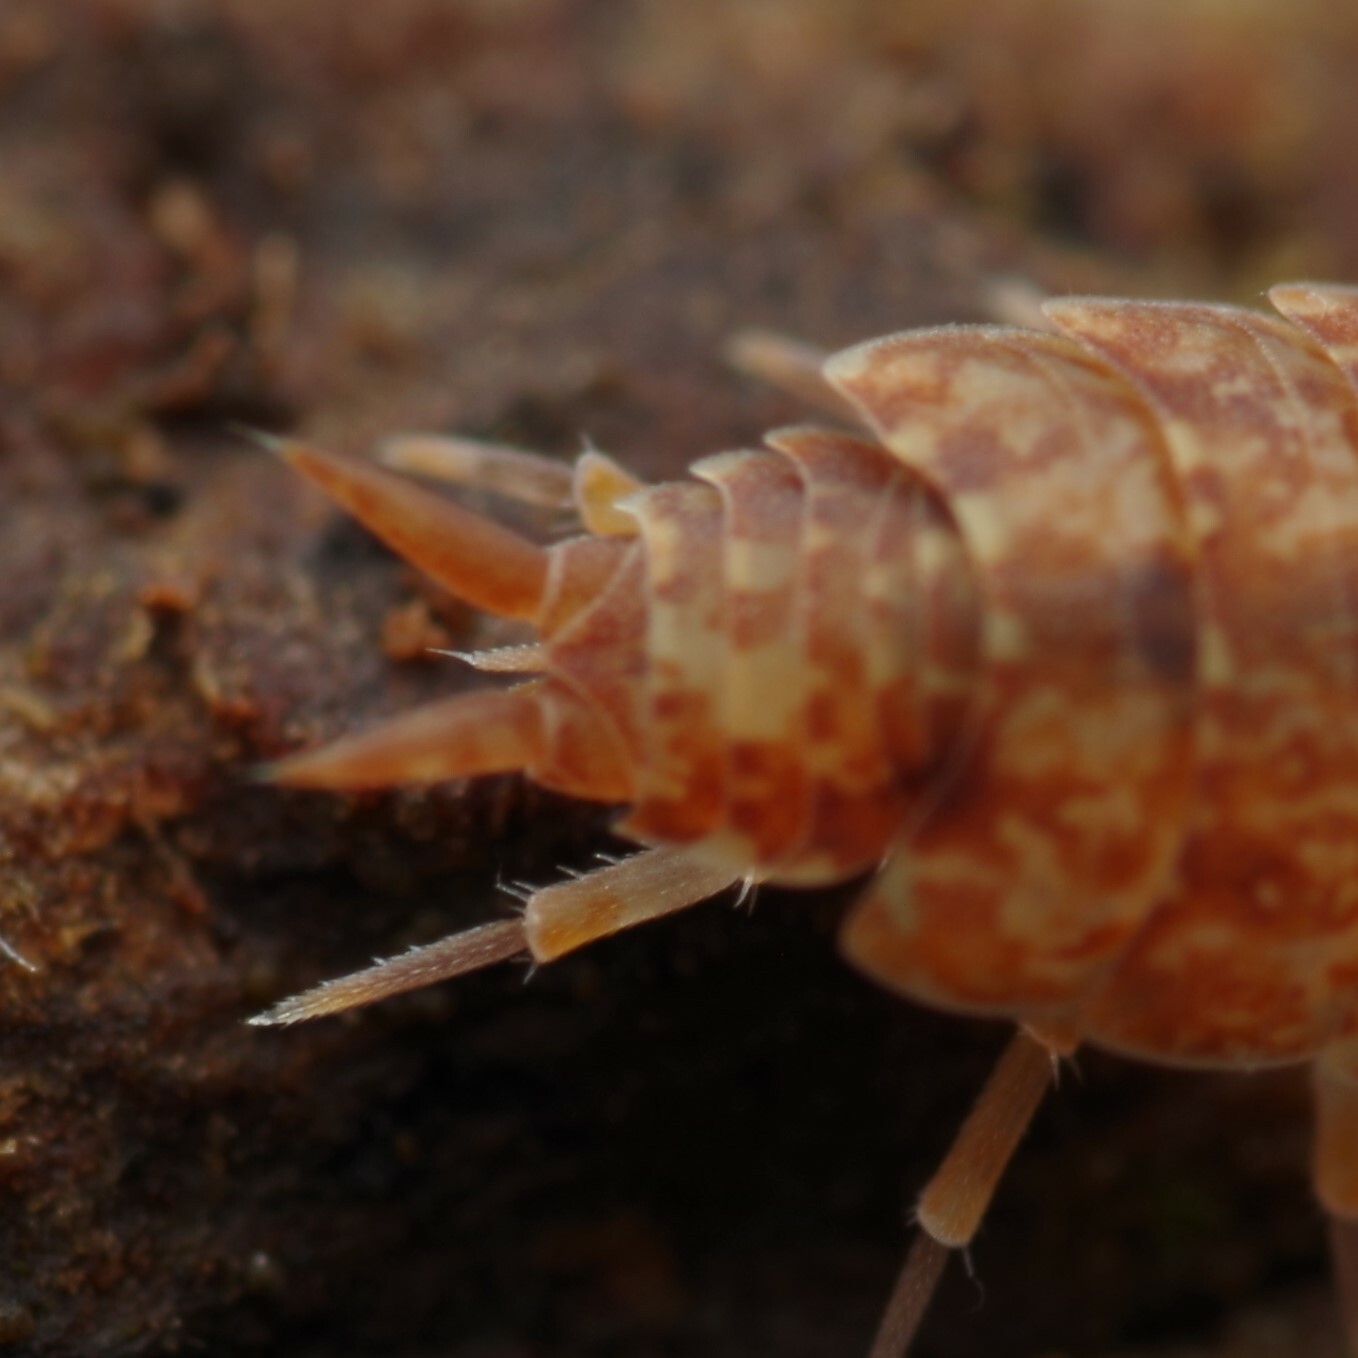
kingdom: Animalia
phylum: Arthropoda
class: Malacostraca
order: Isopoda
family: Porcellionidae
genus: Porcellionides
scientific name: Porcellionides cingendus
